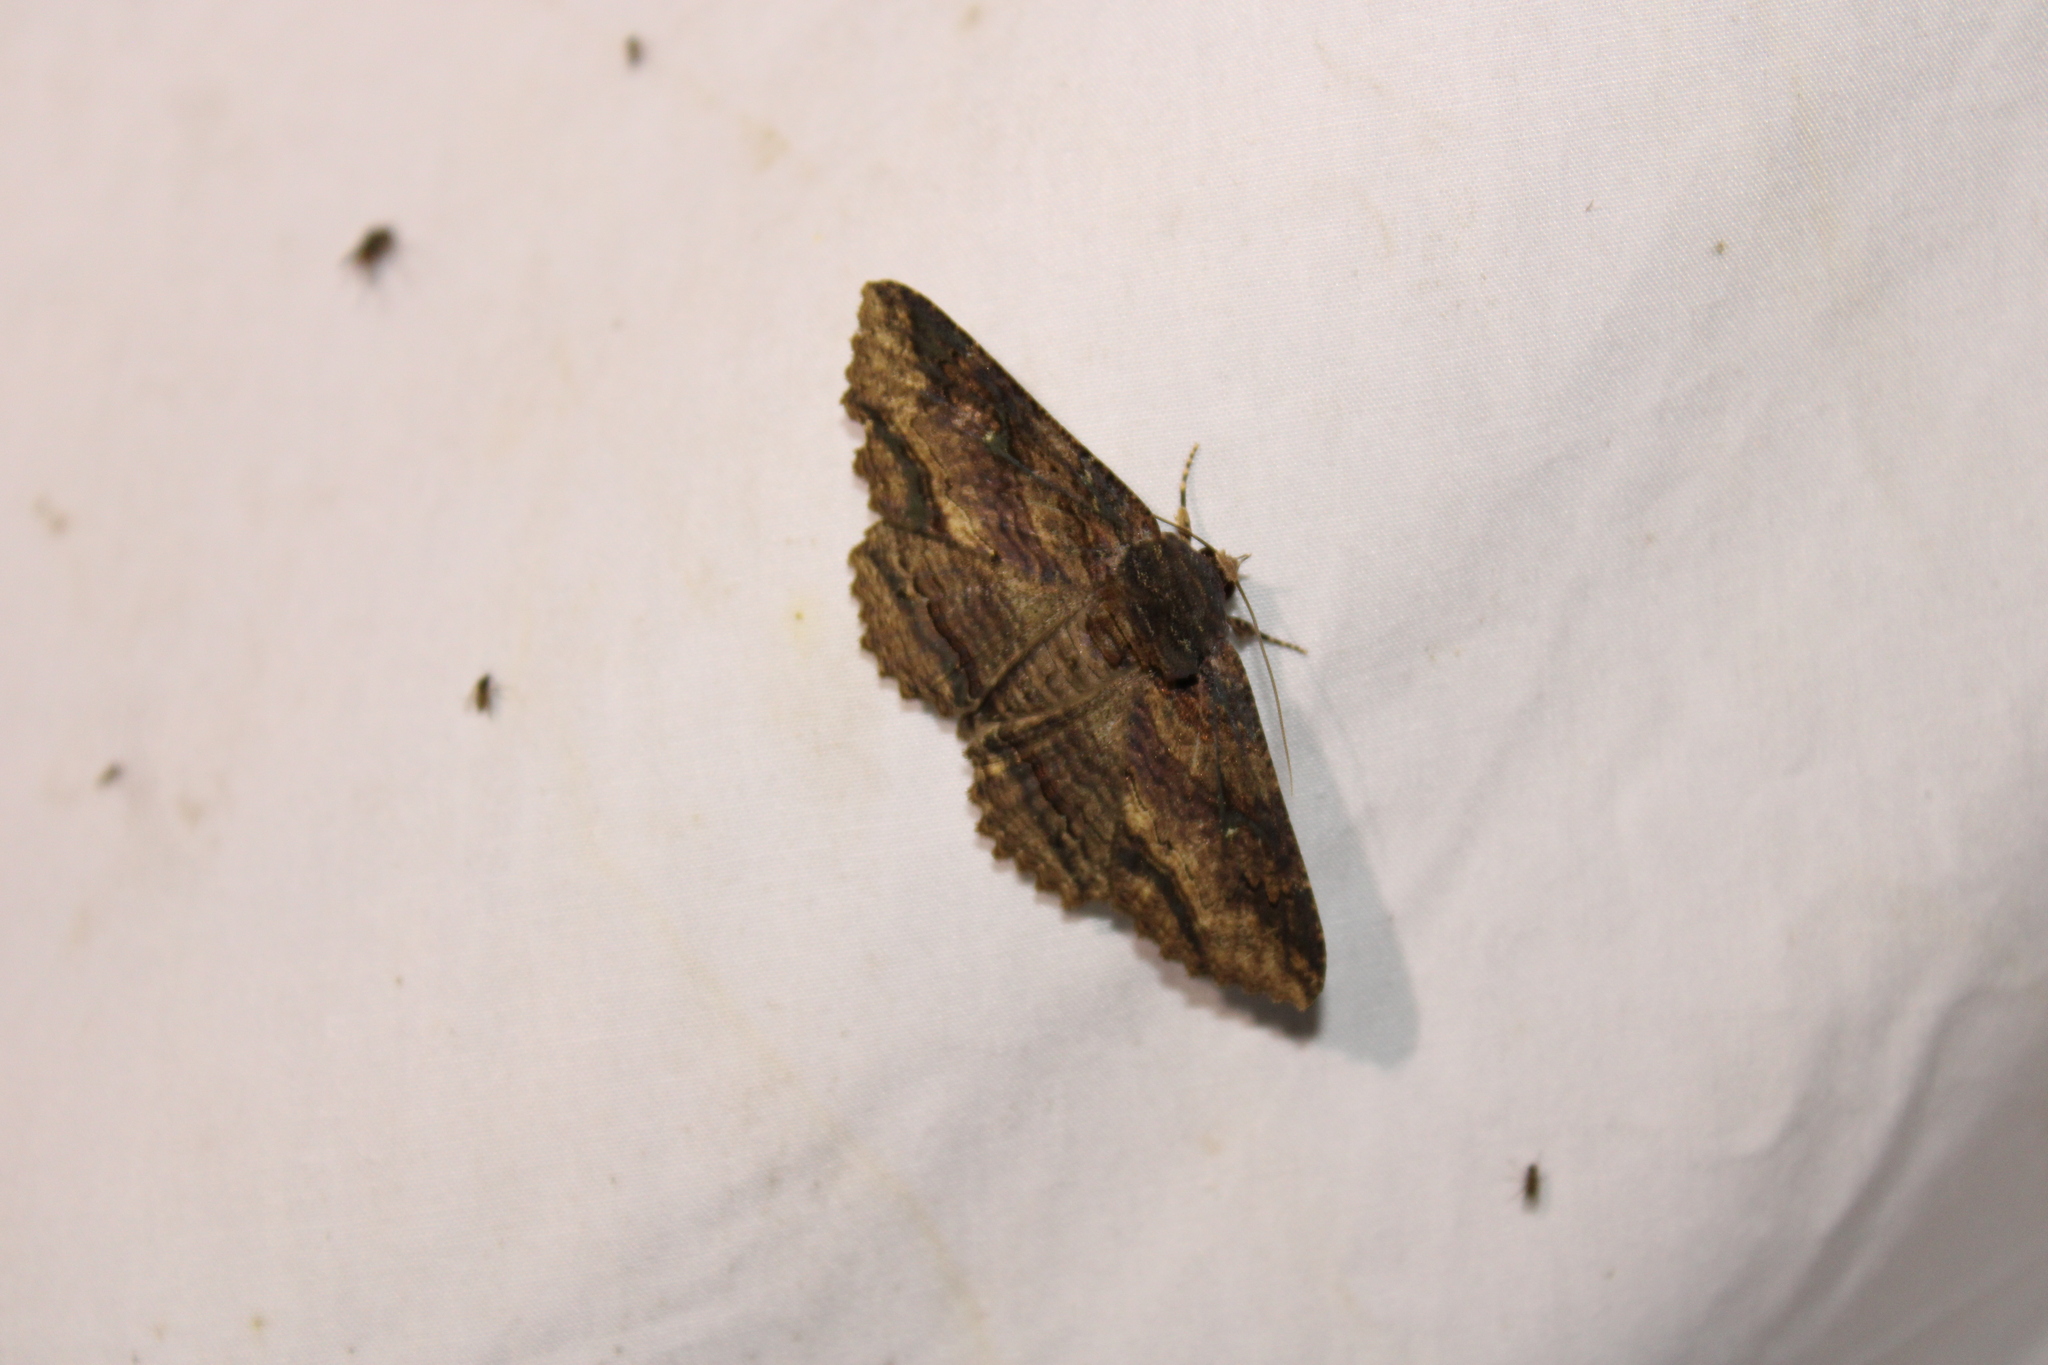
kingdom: Animalia
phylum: Arthropoda
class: Insecta
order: Lepidoptera
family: Erebidae
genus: Zale
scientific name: Zale lunata
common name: Lunate zale moth
